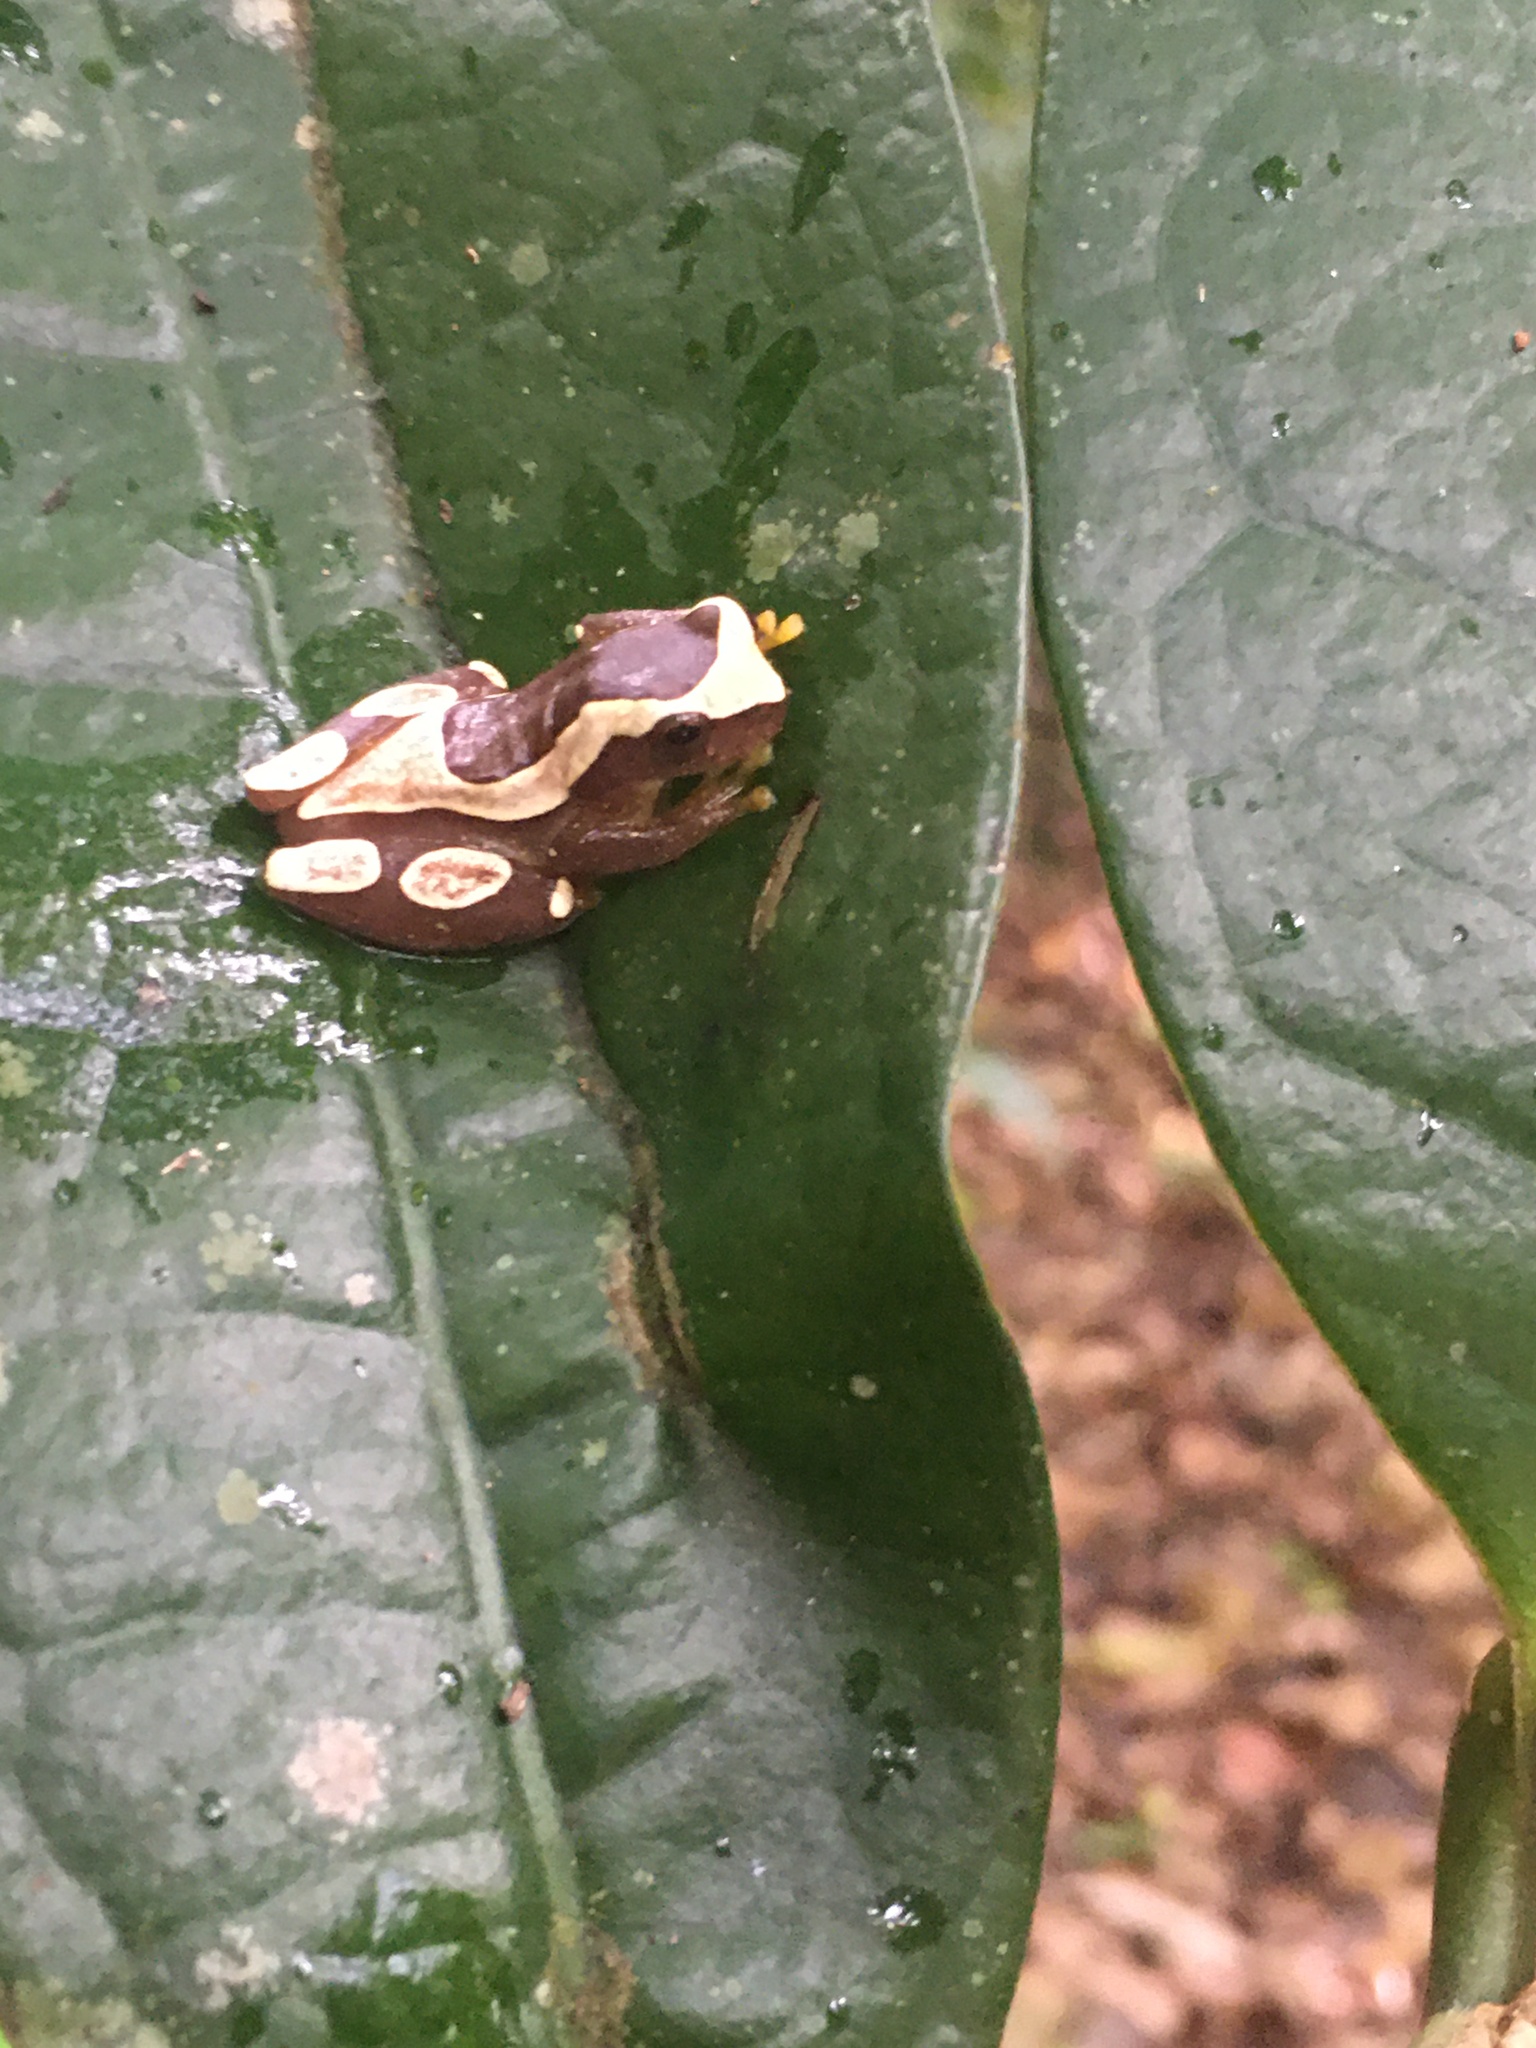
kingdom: Animalia
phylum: Chordata
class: Amphibia
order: Anura
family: Hylidae
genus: Dendropsophus
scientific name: Dendropsophus elegans
